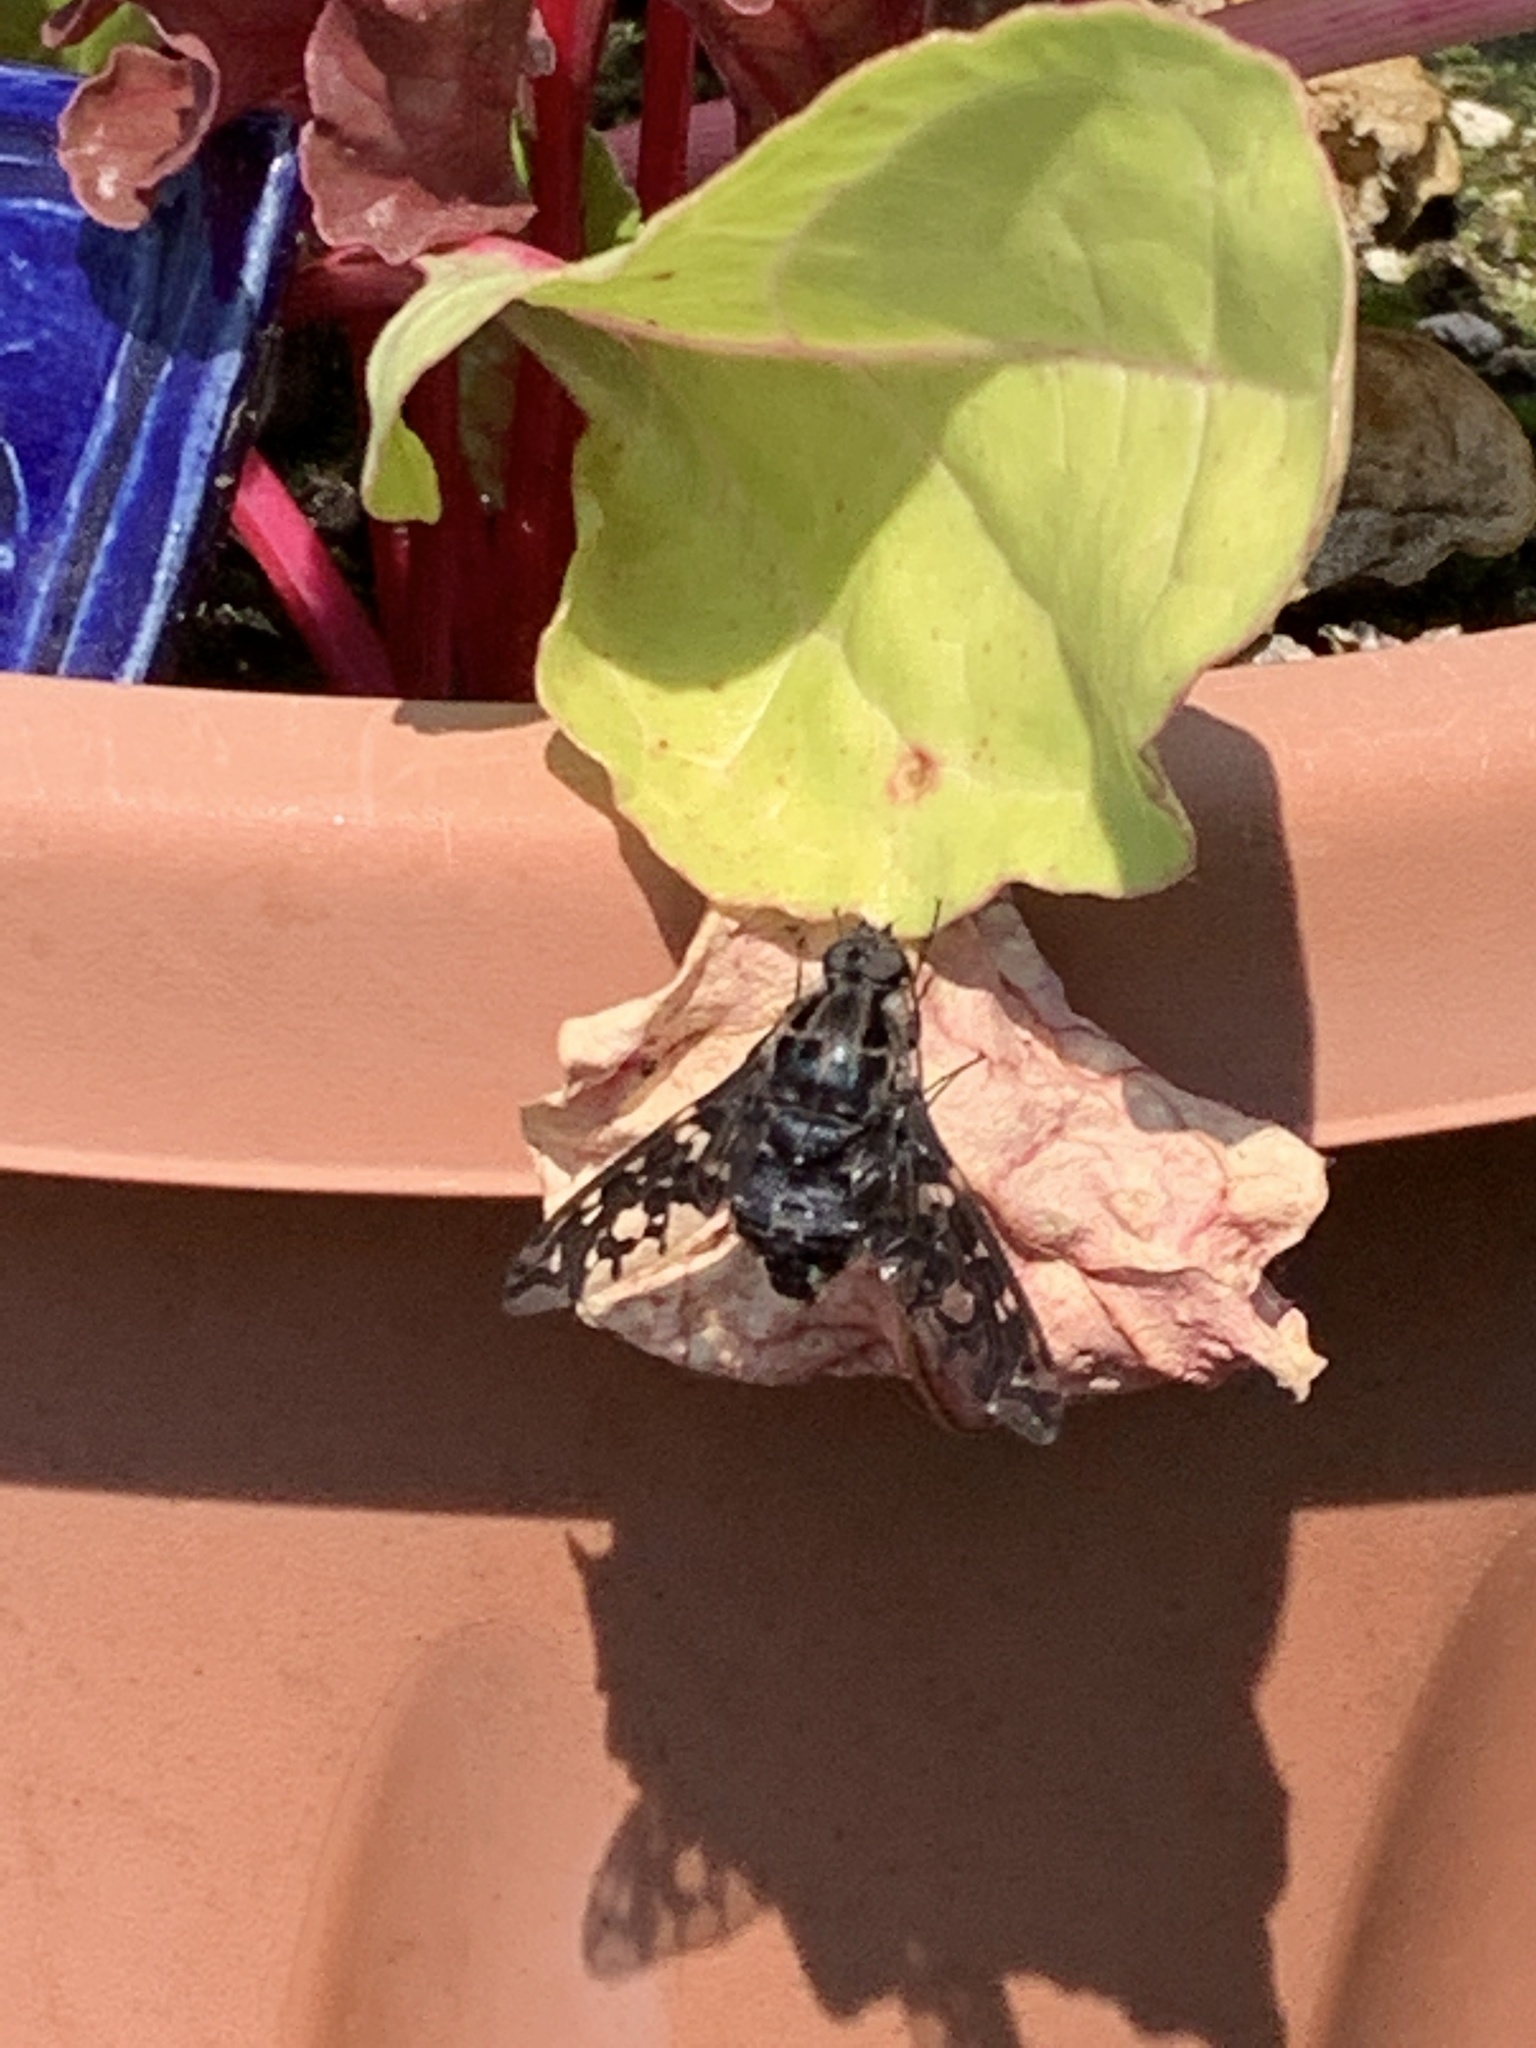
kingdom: Animalia
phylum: Arthropoda
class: Insecta
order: Diptera
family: Bombyliidae
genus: Xenox
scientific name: Xenox tigrinus
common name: Tiger bee fly
